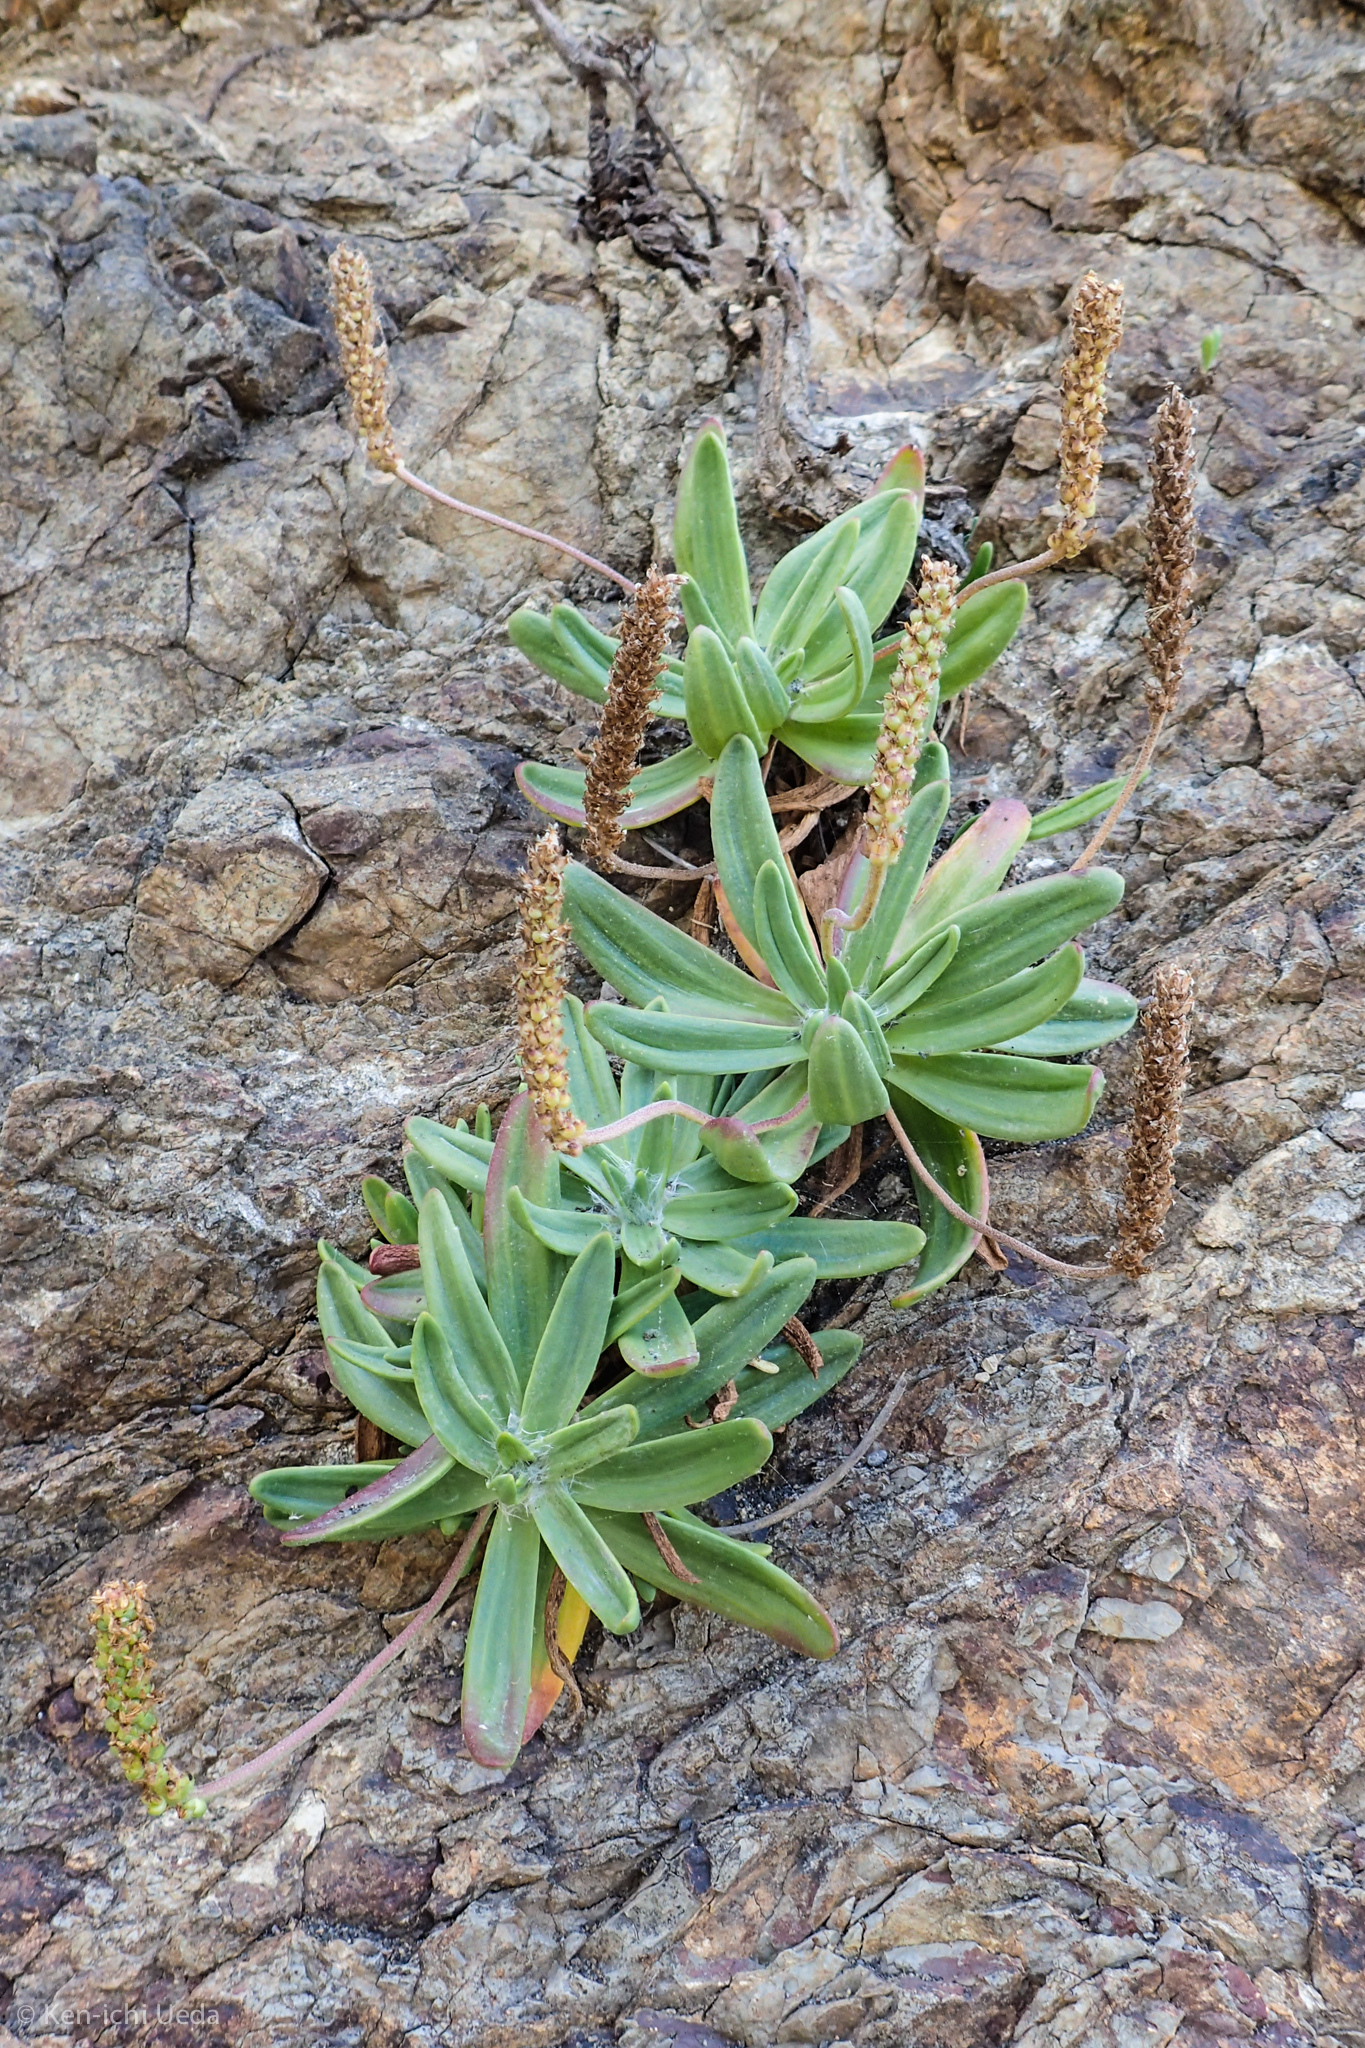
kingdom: Plantae
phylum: Tracheophyta
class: Magnoliopsida
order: Lamiales
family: Plantaginaceae
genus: Plantago
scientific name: Plantago maritima
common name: Sea plantain
